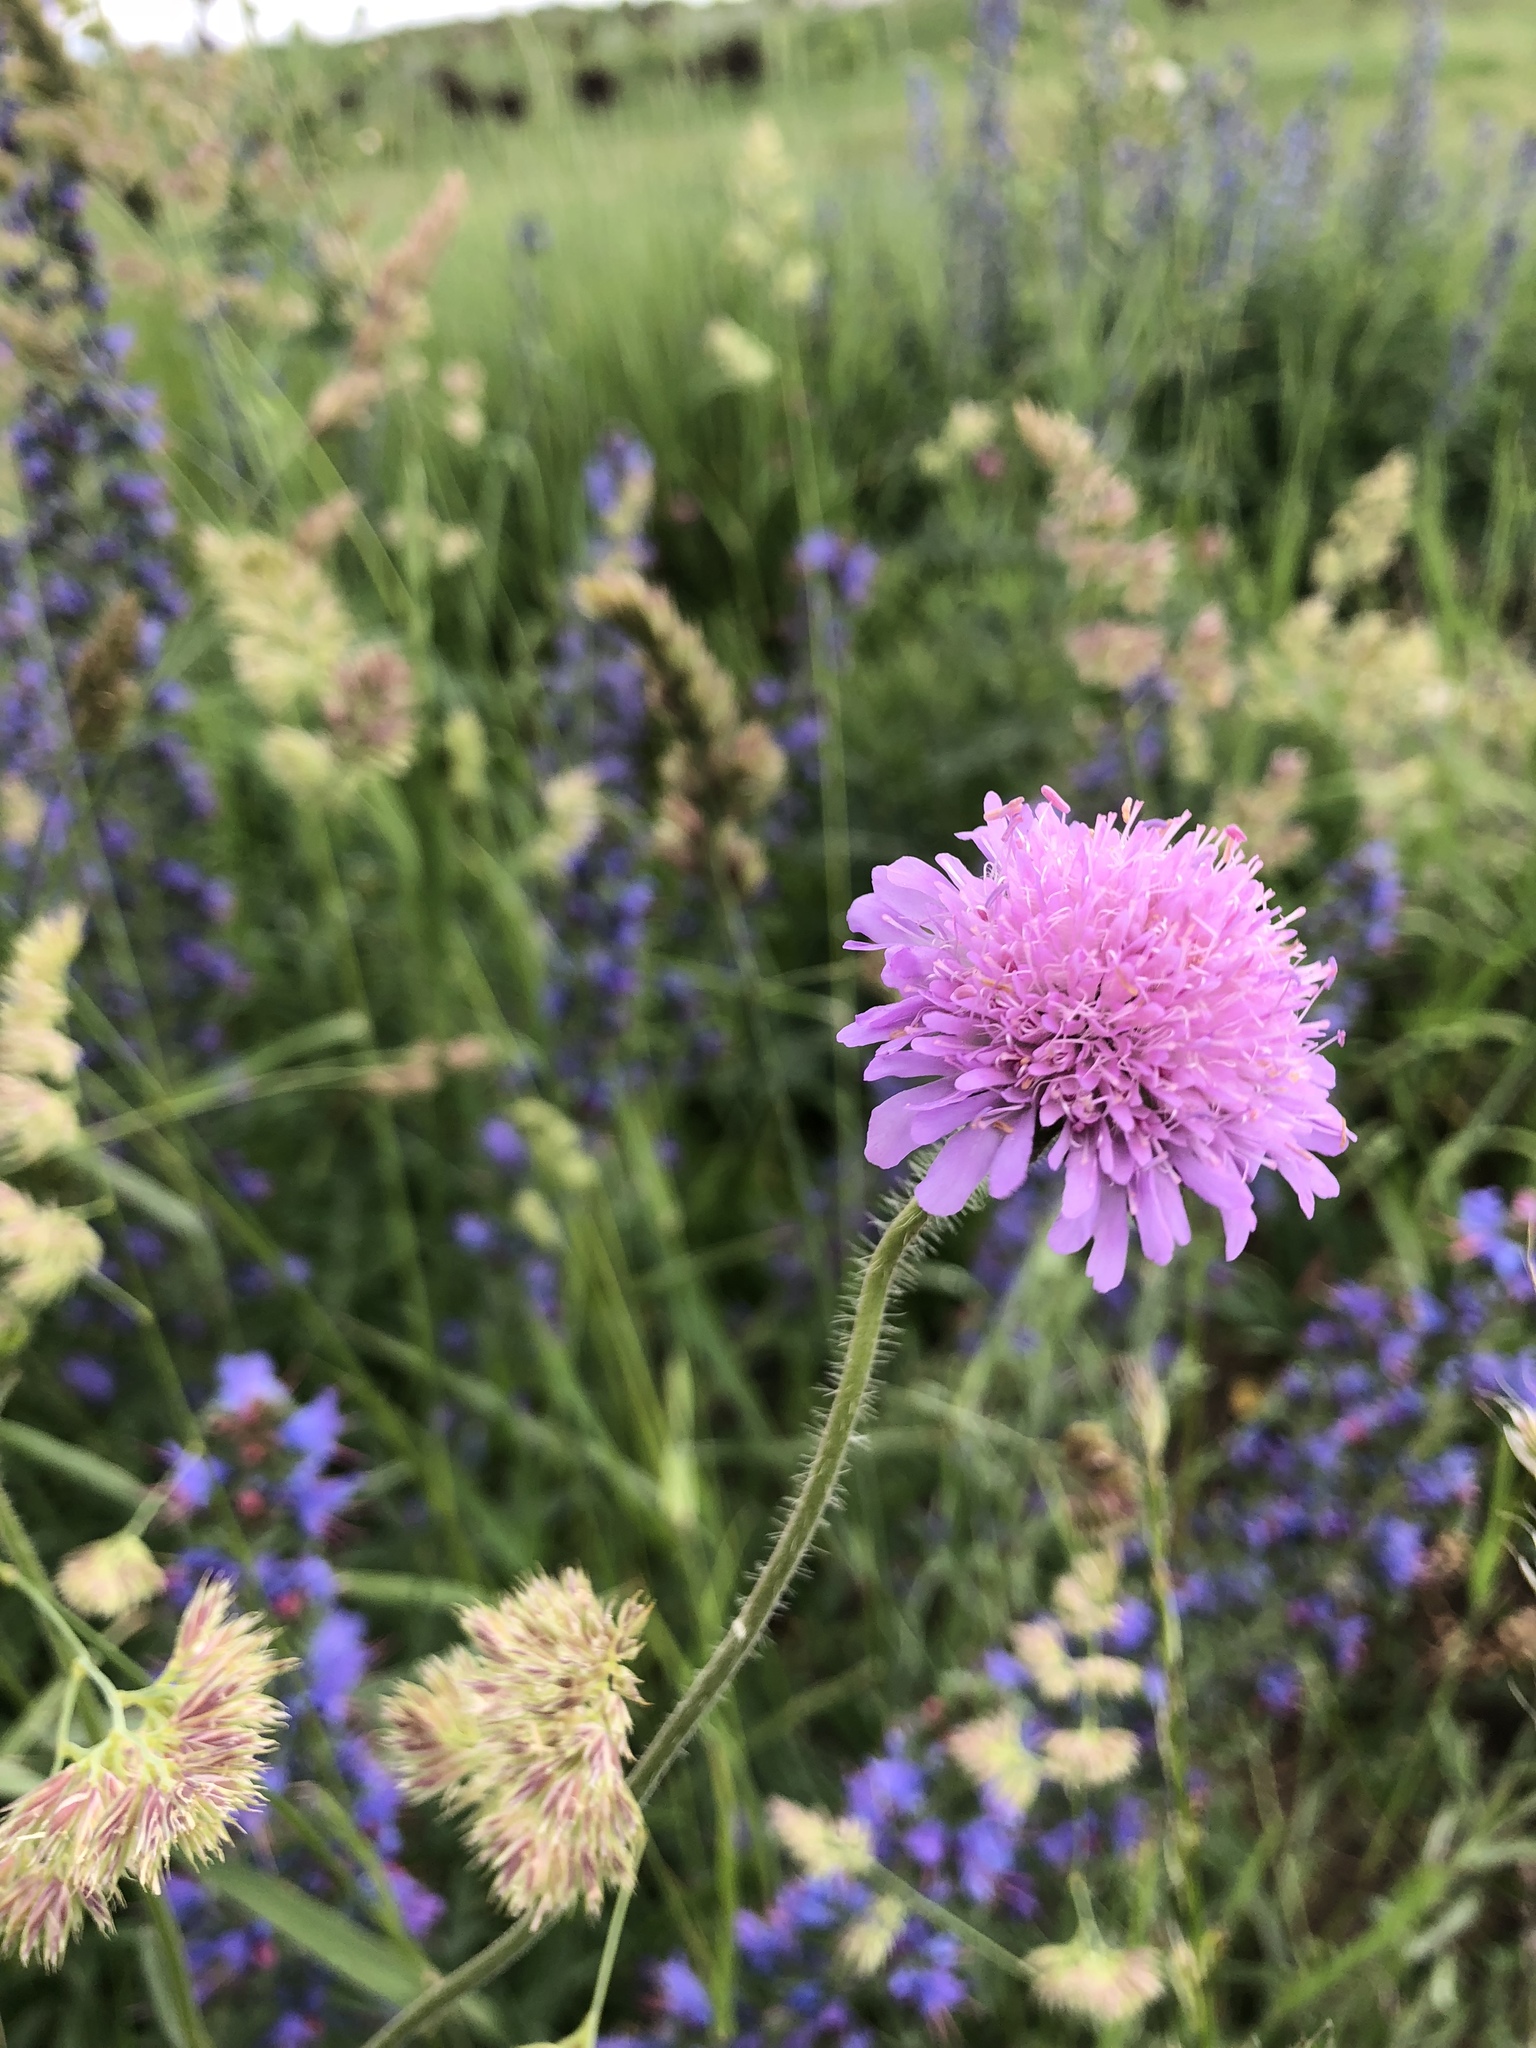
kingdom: Plantae
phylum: Tracheophyta
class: Magnoliopsida
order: Dipsacales
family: Caprifoliaceae
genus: Knautia
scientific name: Knautia arvensis
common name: Field scabiosa
